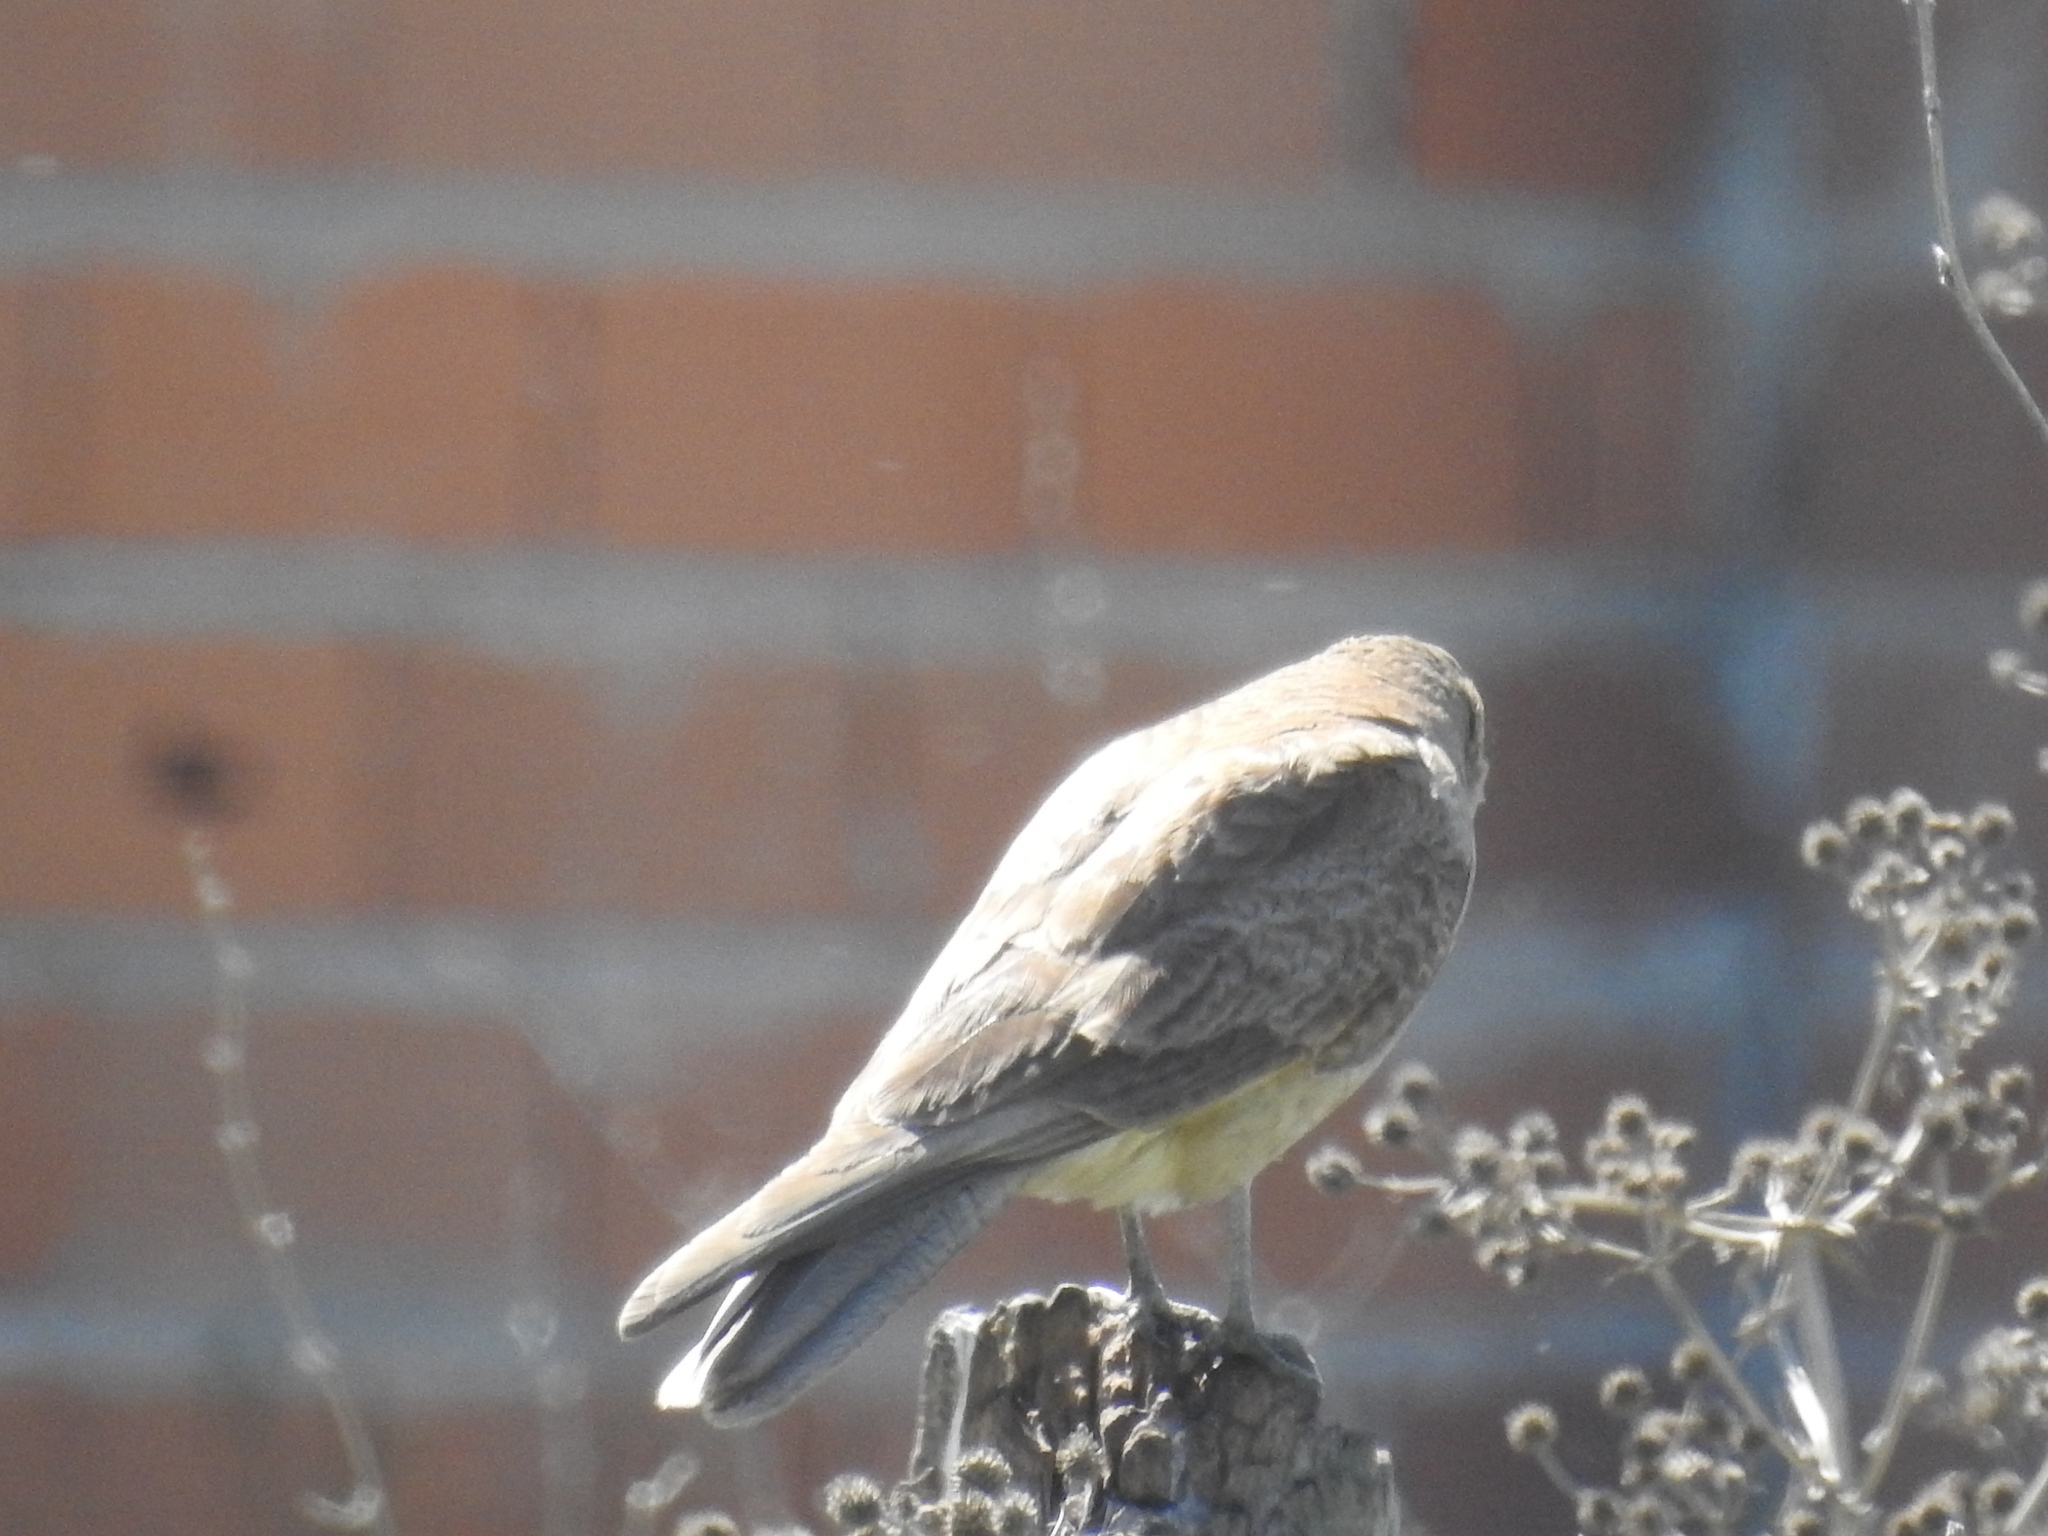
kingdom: Animalia
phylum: Chordata
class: Aves
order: Falconiformes
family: Falconidae
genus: Daptrius
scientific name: Daptrius
